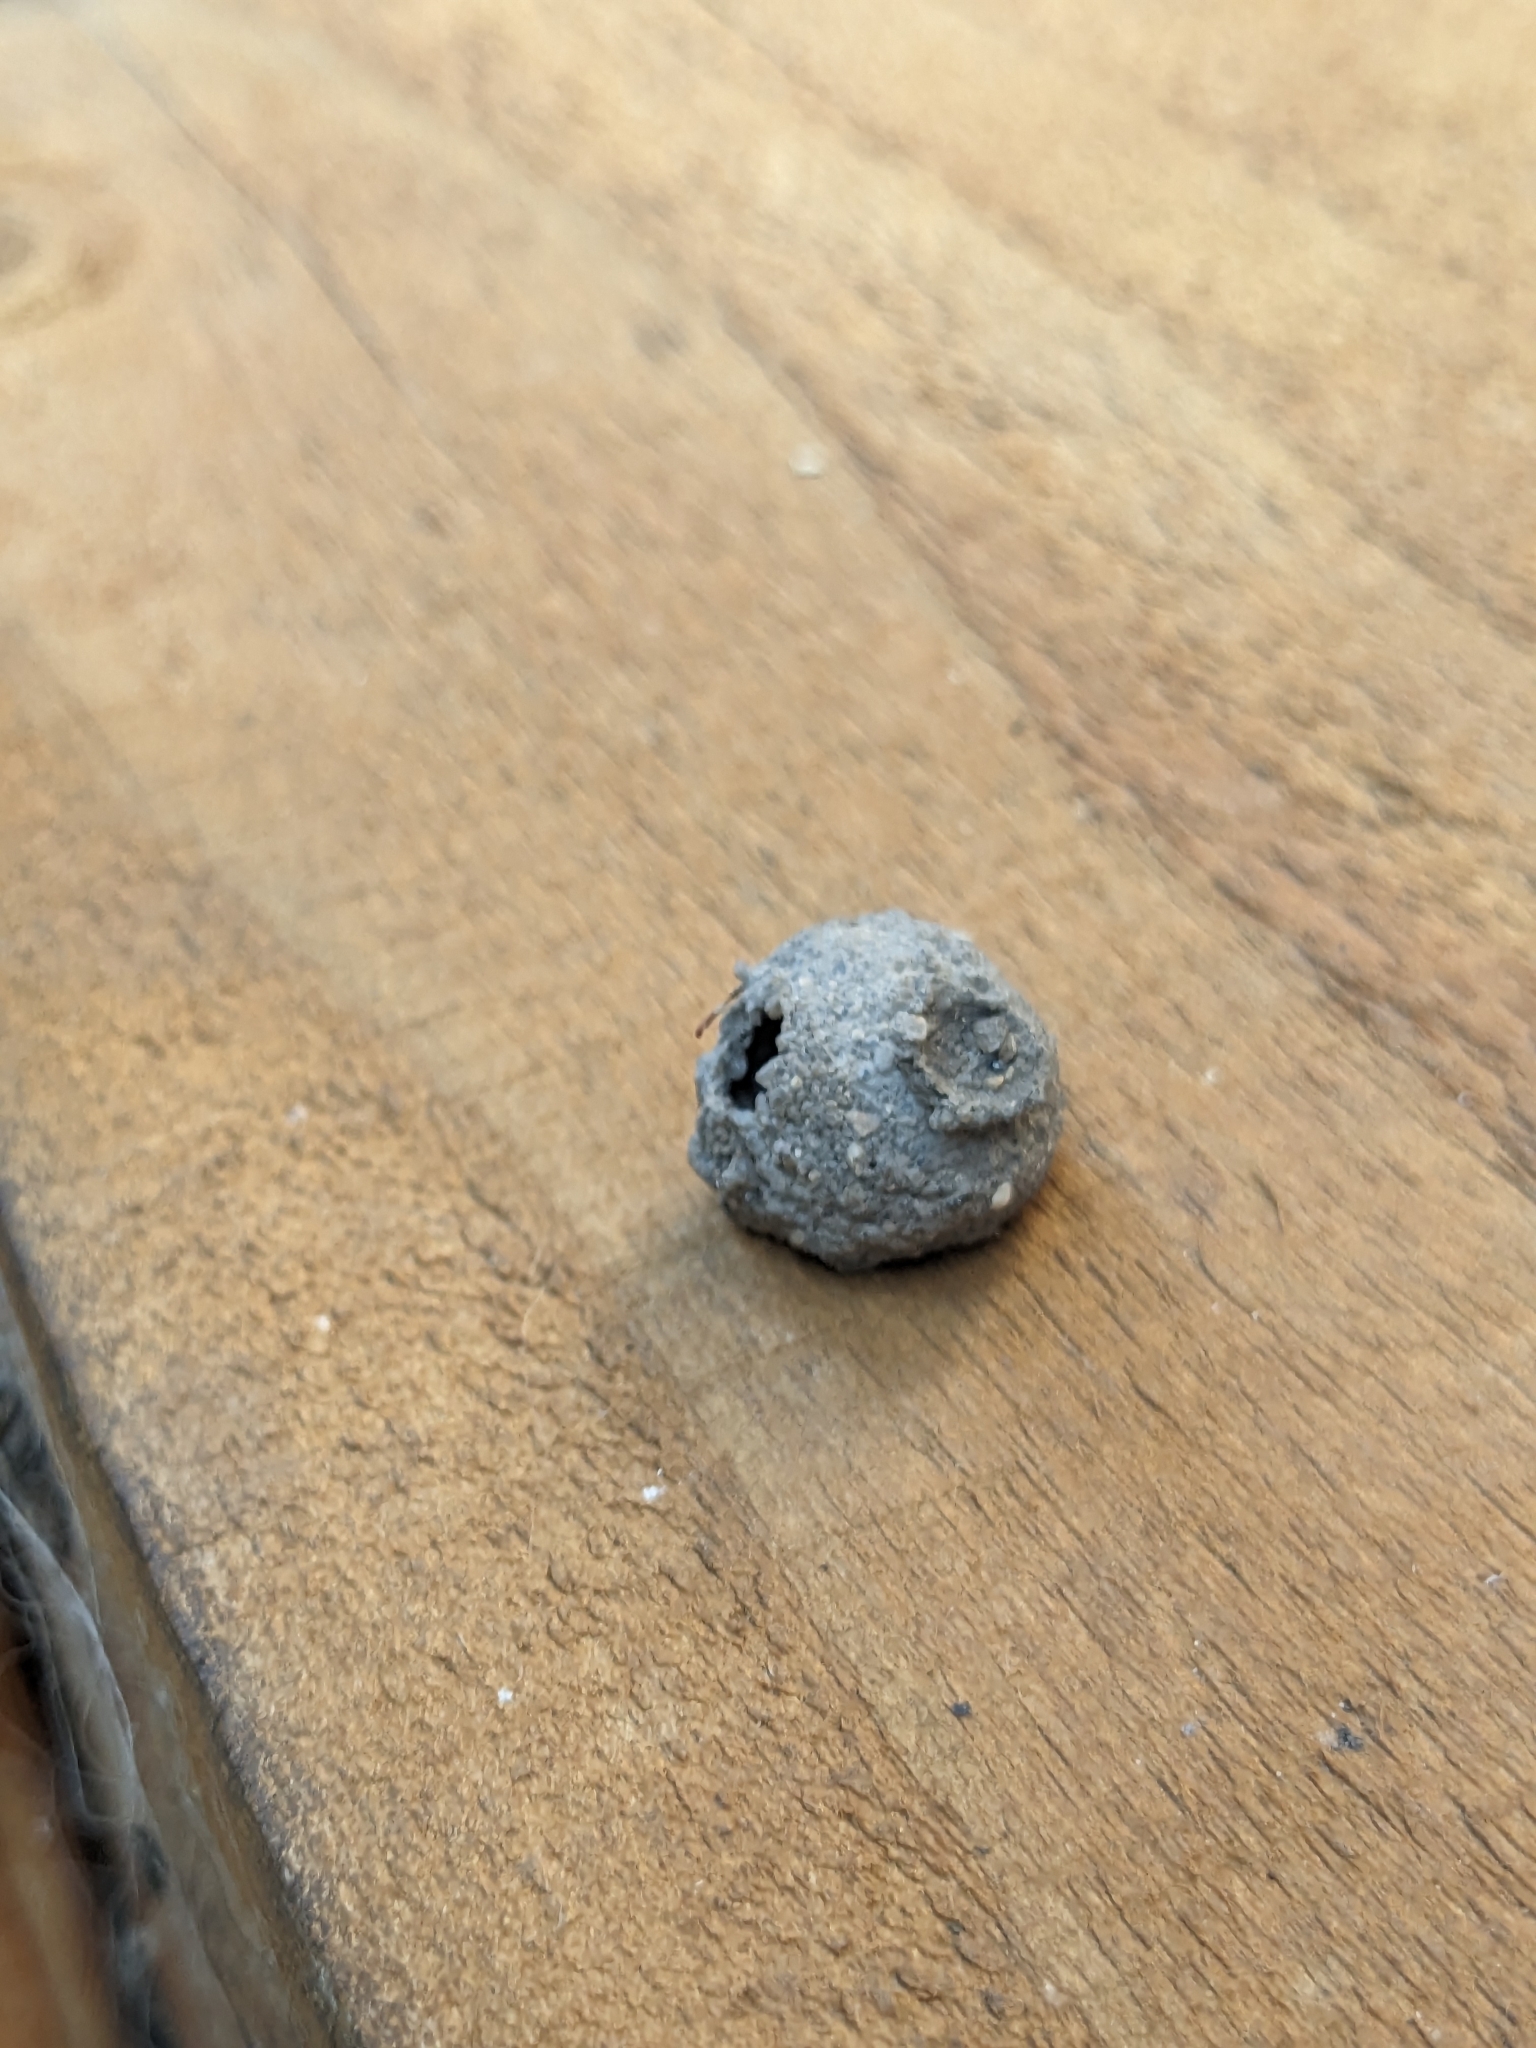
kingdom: Animalia
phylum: Arthropoda
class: Insecta
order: Hymenoptera
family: Vespidae
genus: Eumenes
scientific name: Eumenes
